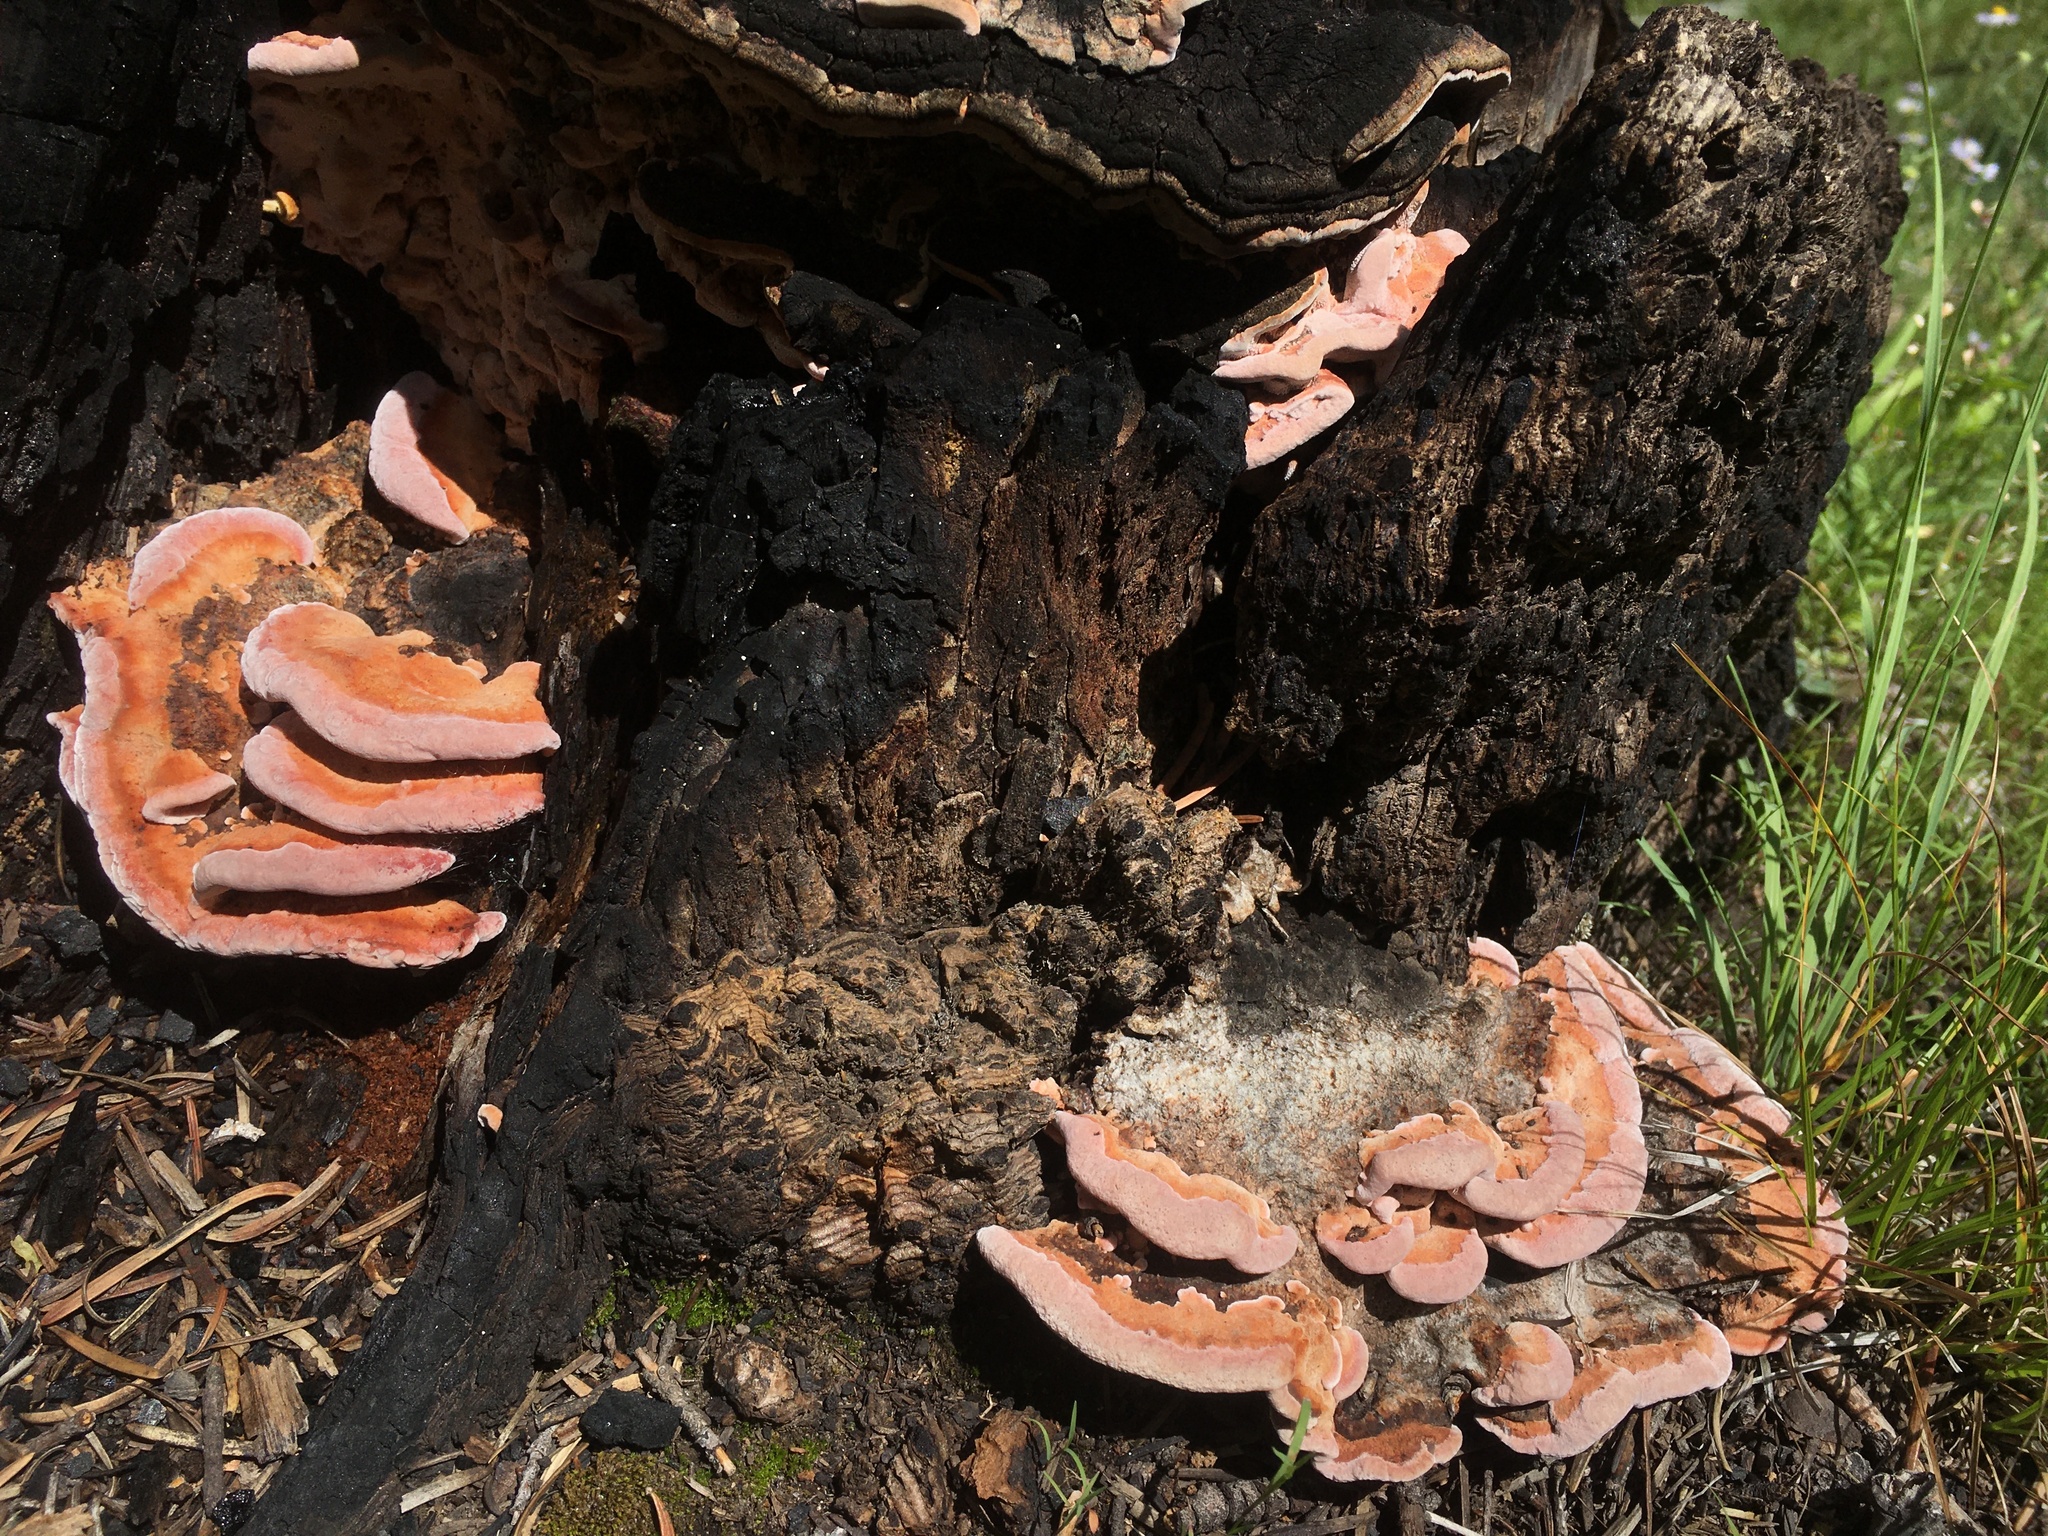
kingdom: Fungi
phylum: Basidiomycota
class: Agaricomycetes
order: Polyporales
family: Fomitopsidaceae
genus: Rhodofomes
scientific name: Rhodofomes cajanderi
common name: Rosy conk
